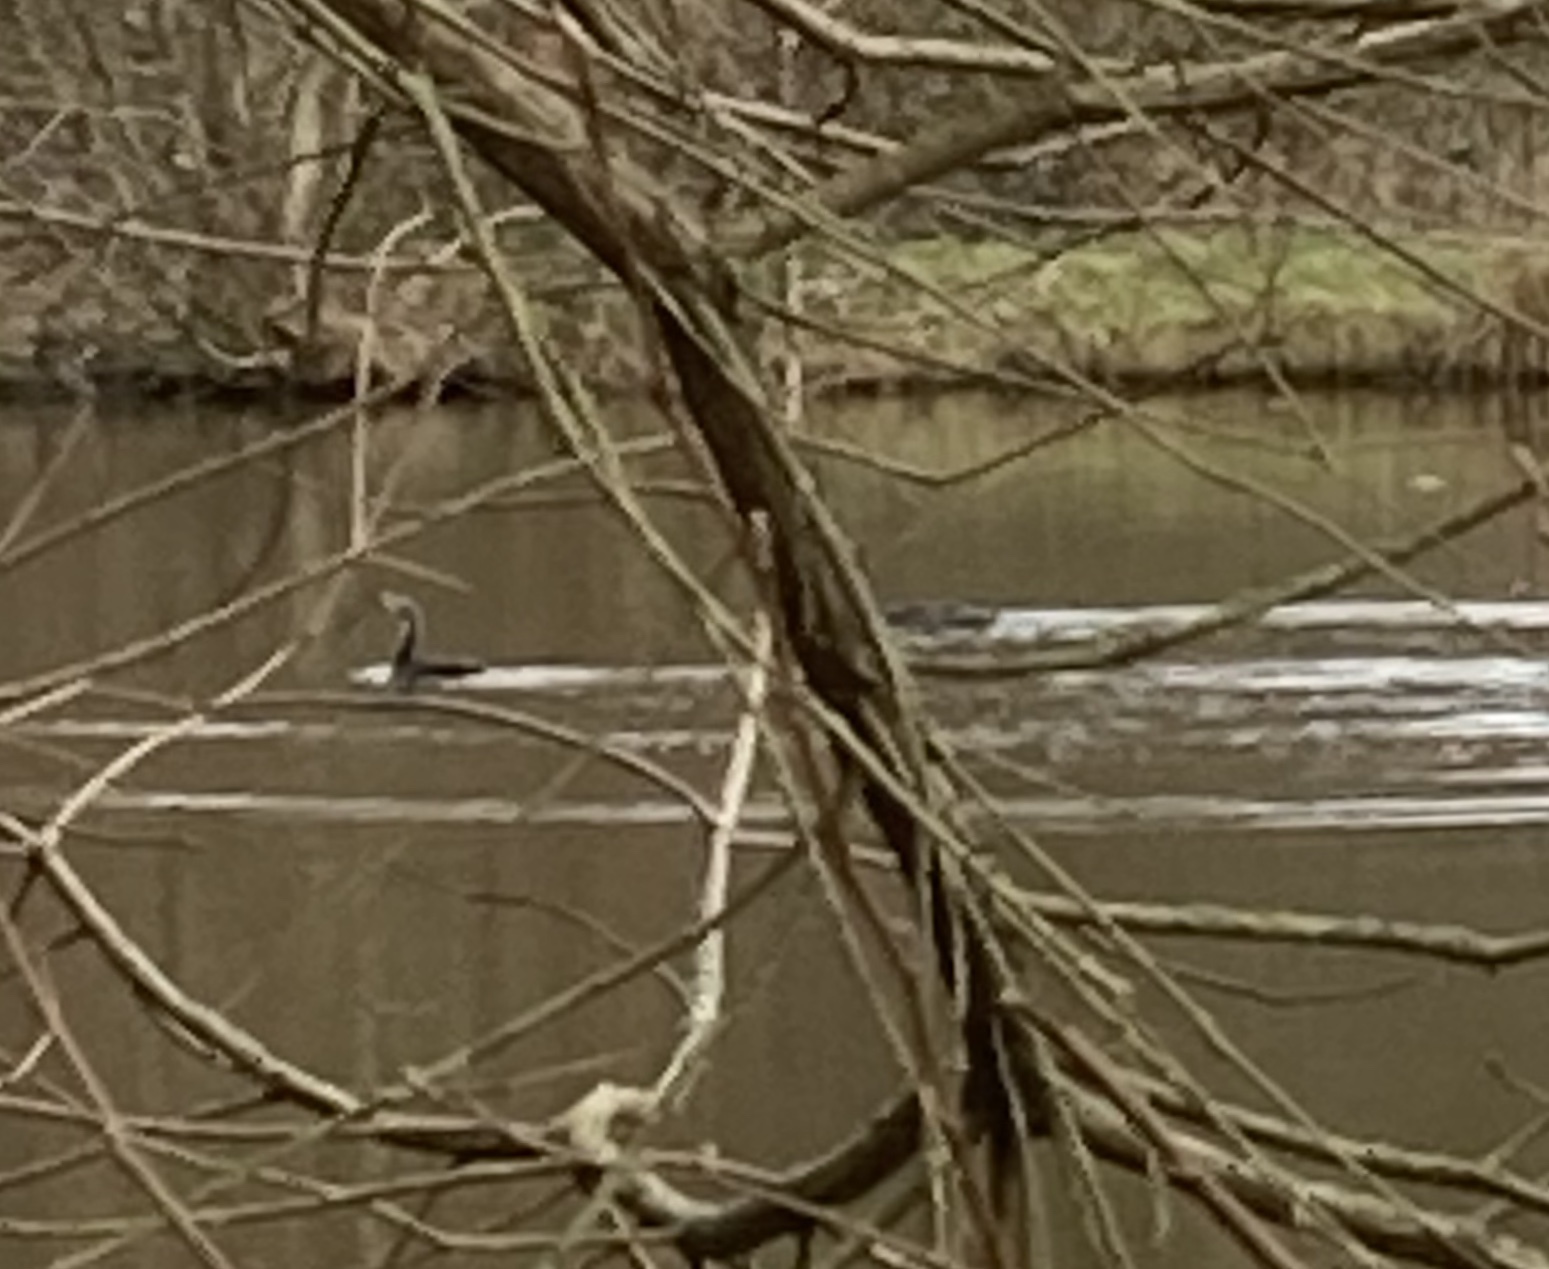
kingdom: Animalia
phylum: Chordata
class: Aves
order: Suliformes
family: Phalacrocoracidae
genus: Phalacrocorax
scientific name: Phalacrocorax carbo
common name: Great cormorant
